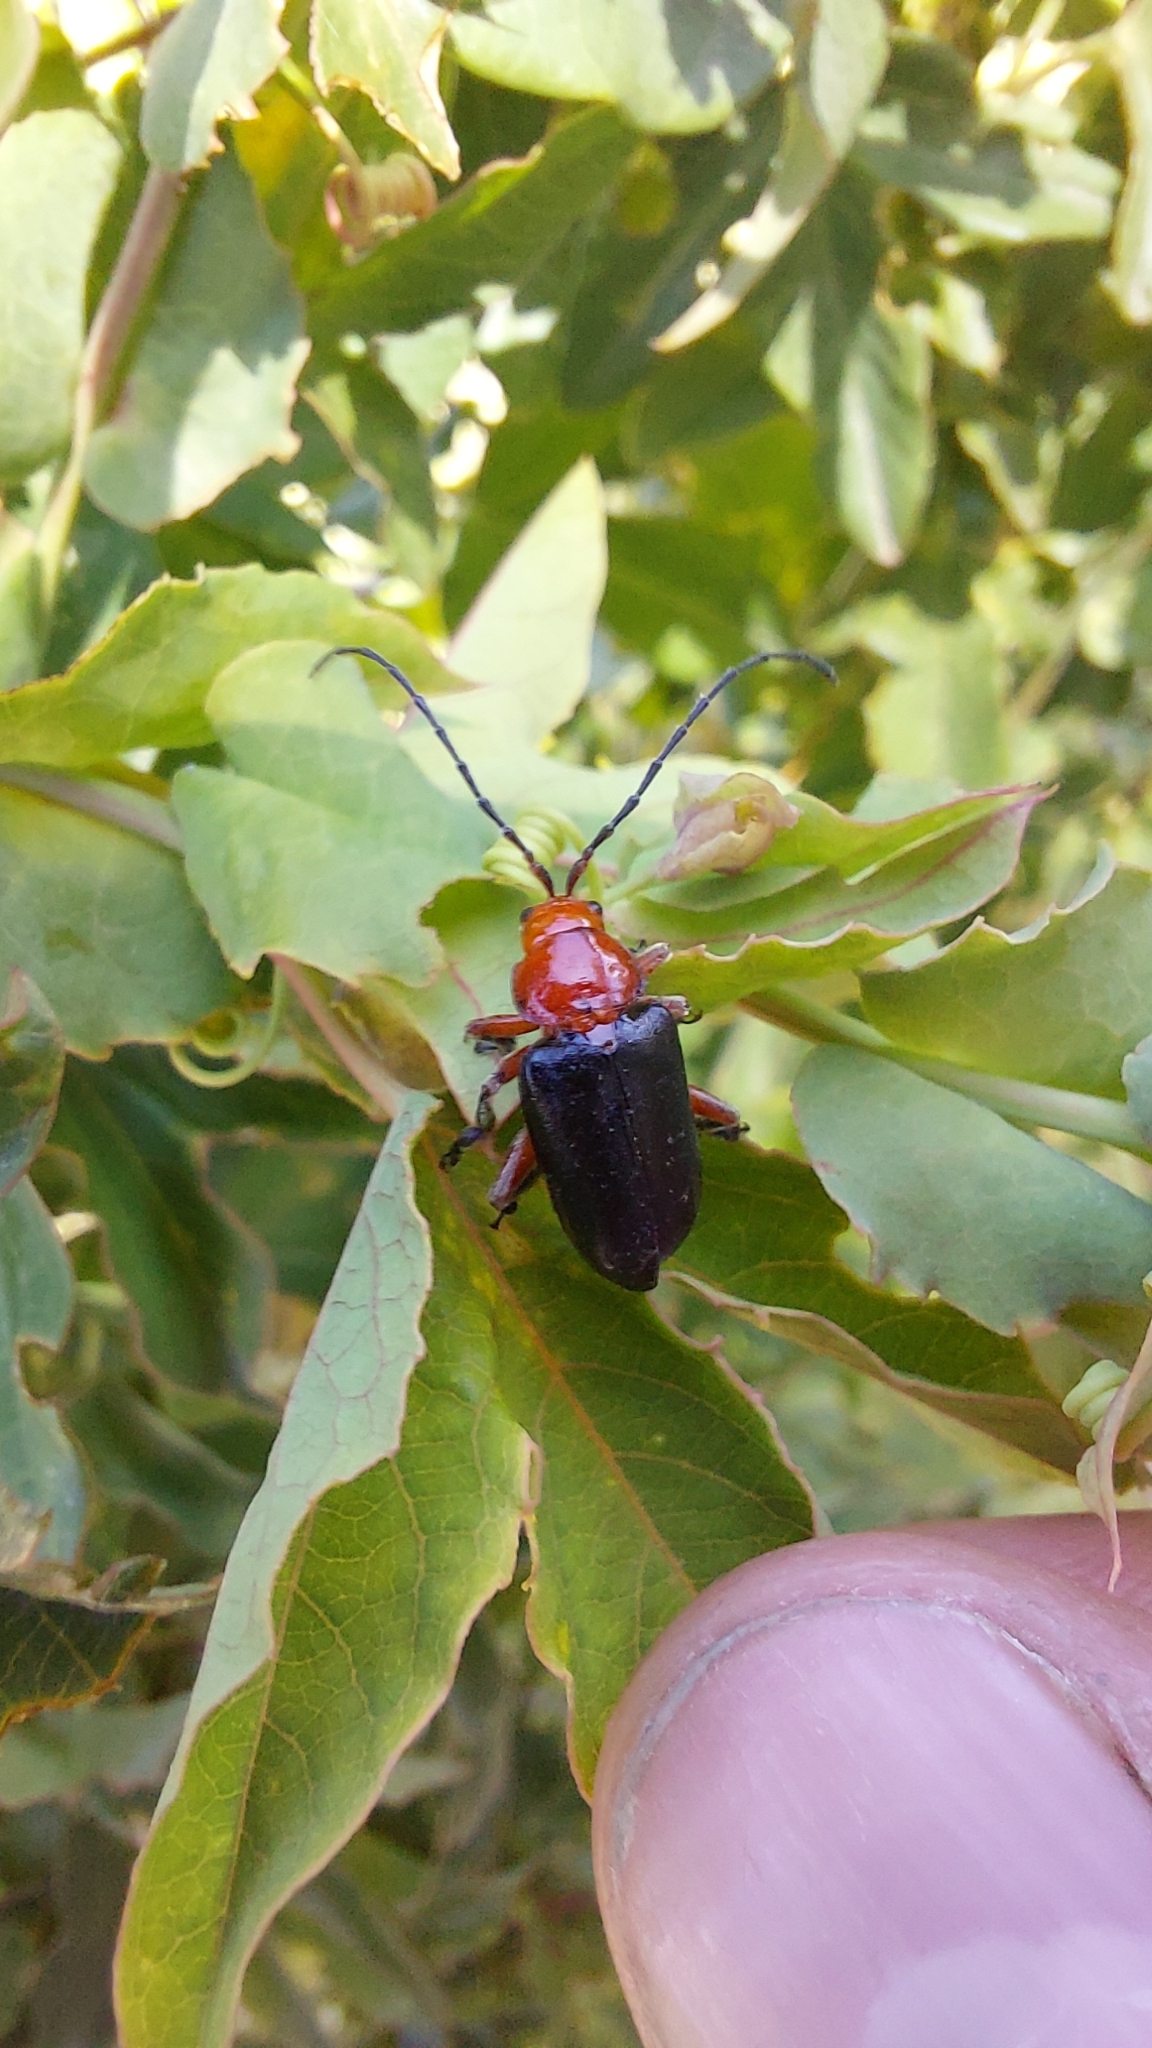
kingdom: Animalia
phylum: Arthropoda
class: Insecta
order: Coleoptera
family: Chrysomelidae
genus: Diacacoscelis
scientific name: Diacacoscelis
